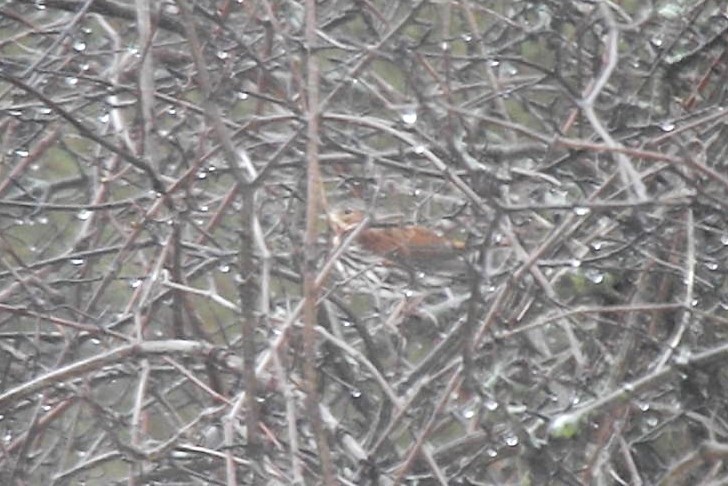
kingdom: Animalia
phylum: Chordata
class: Aves
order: Passeriformes
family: Passerellidae
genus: Passerella
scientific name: Passerella iliaca
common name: Fox sparrow
